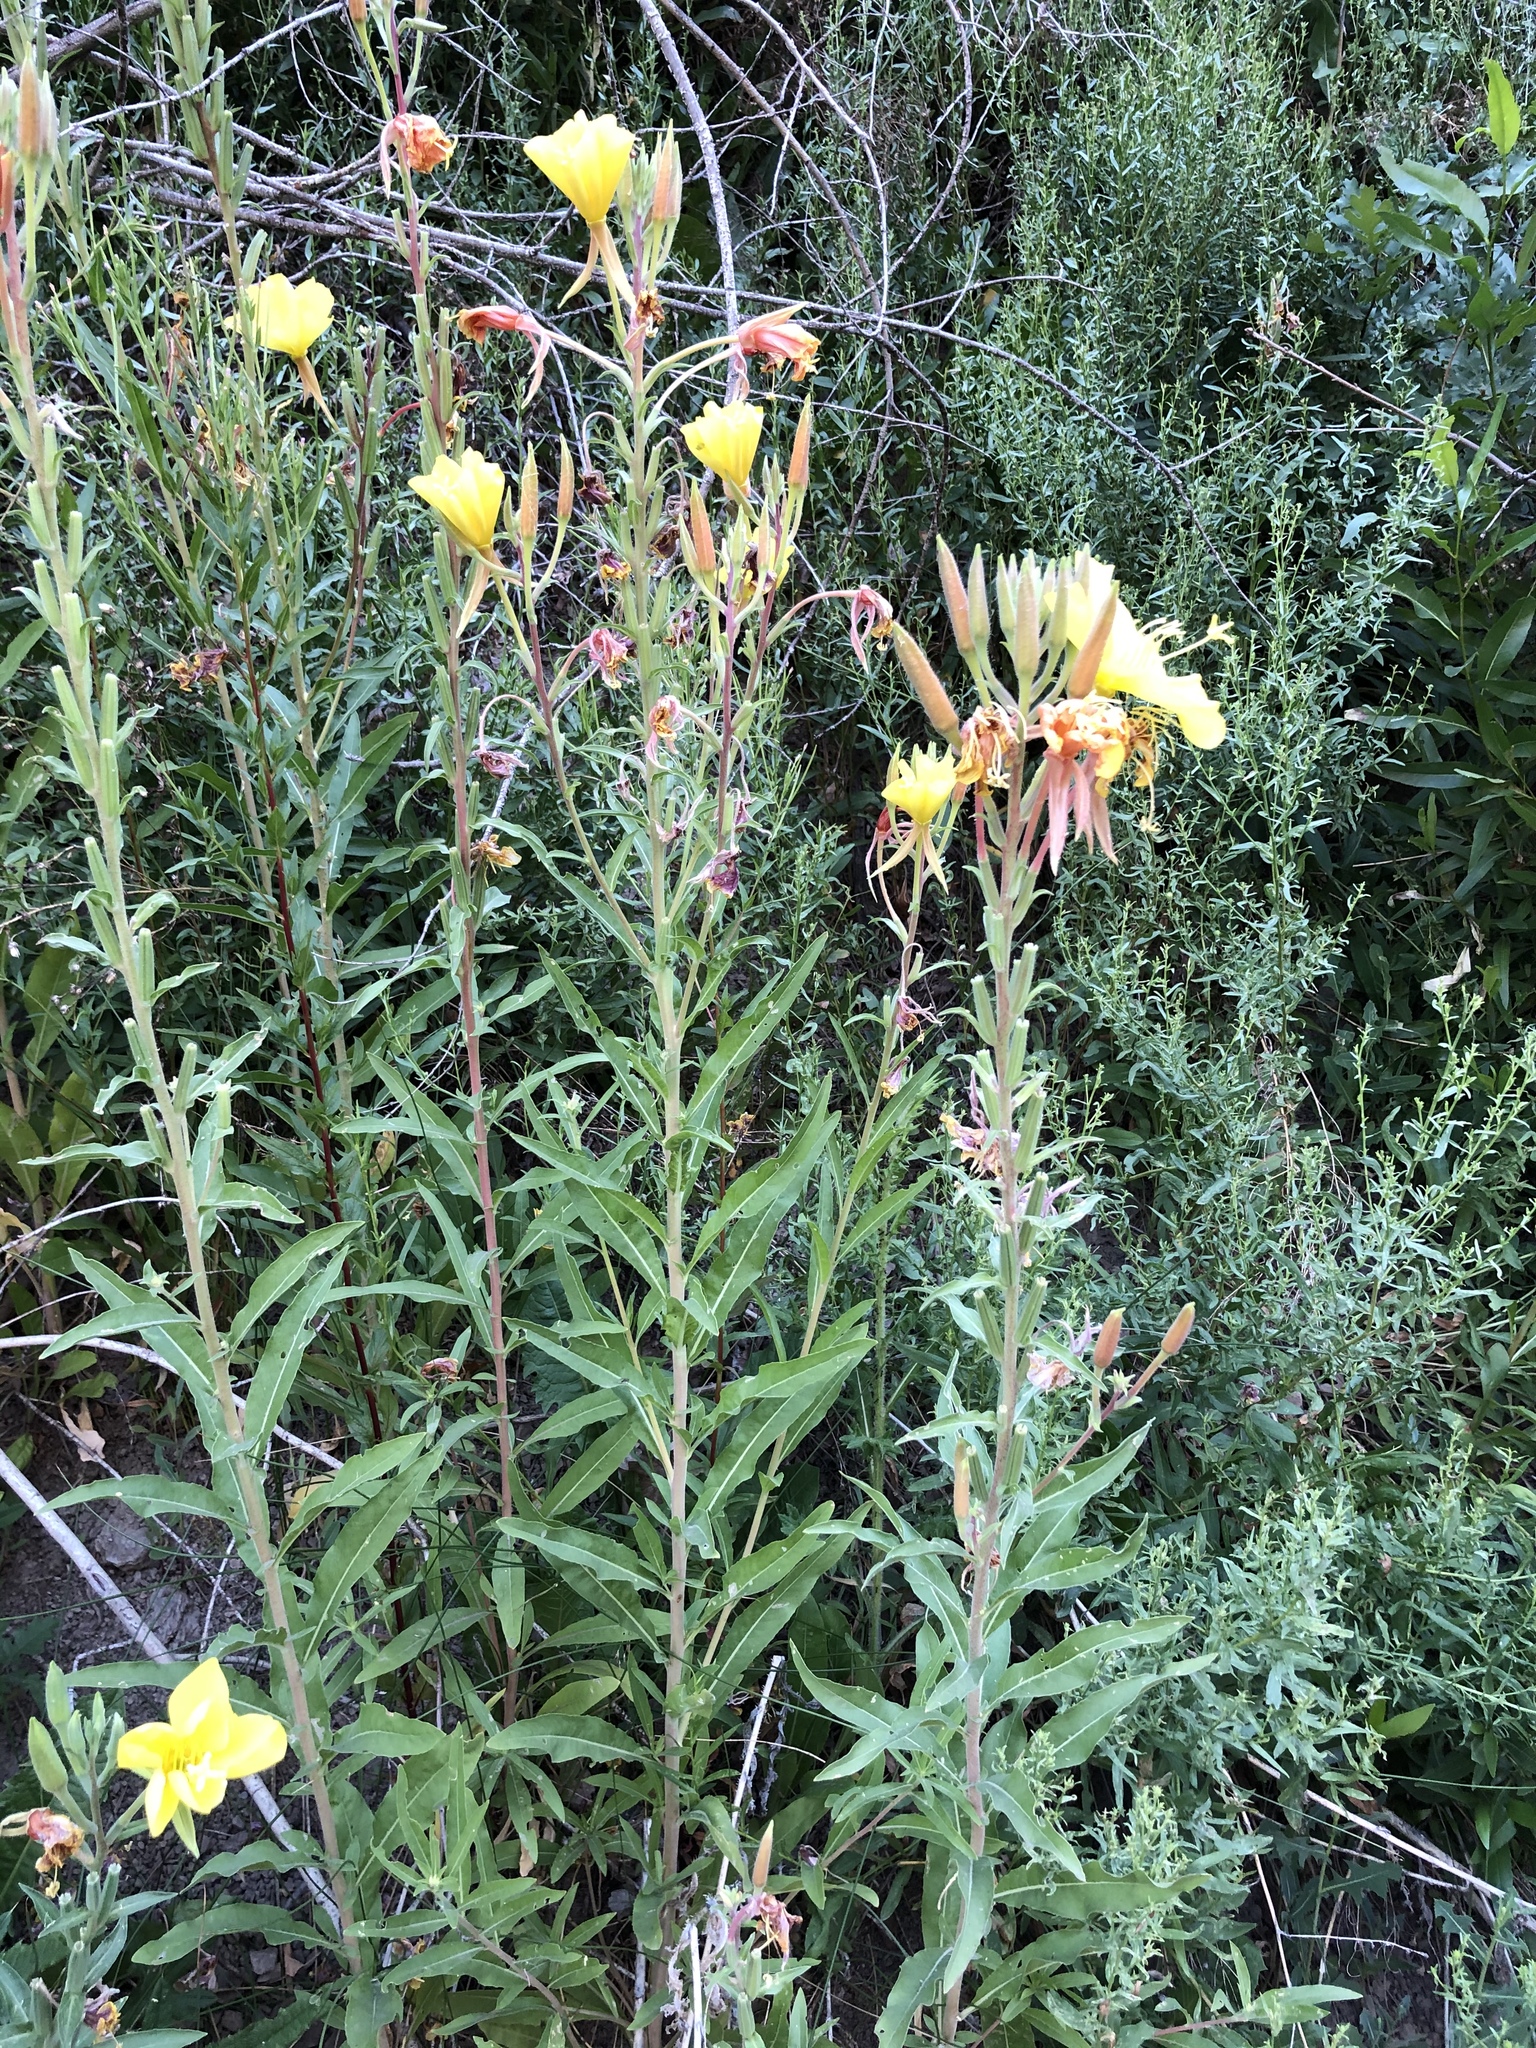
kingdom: Plantae
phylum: Tracheophyta
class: Magnoliopsida
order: Myrtales
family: Onagraceae
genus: Oenothera
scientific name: Oenothera elata
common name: Hooker's evening-primrose
